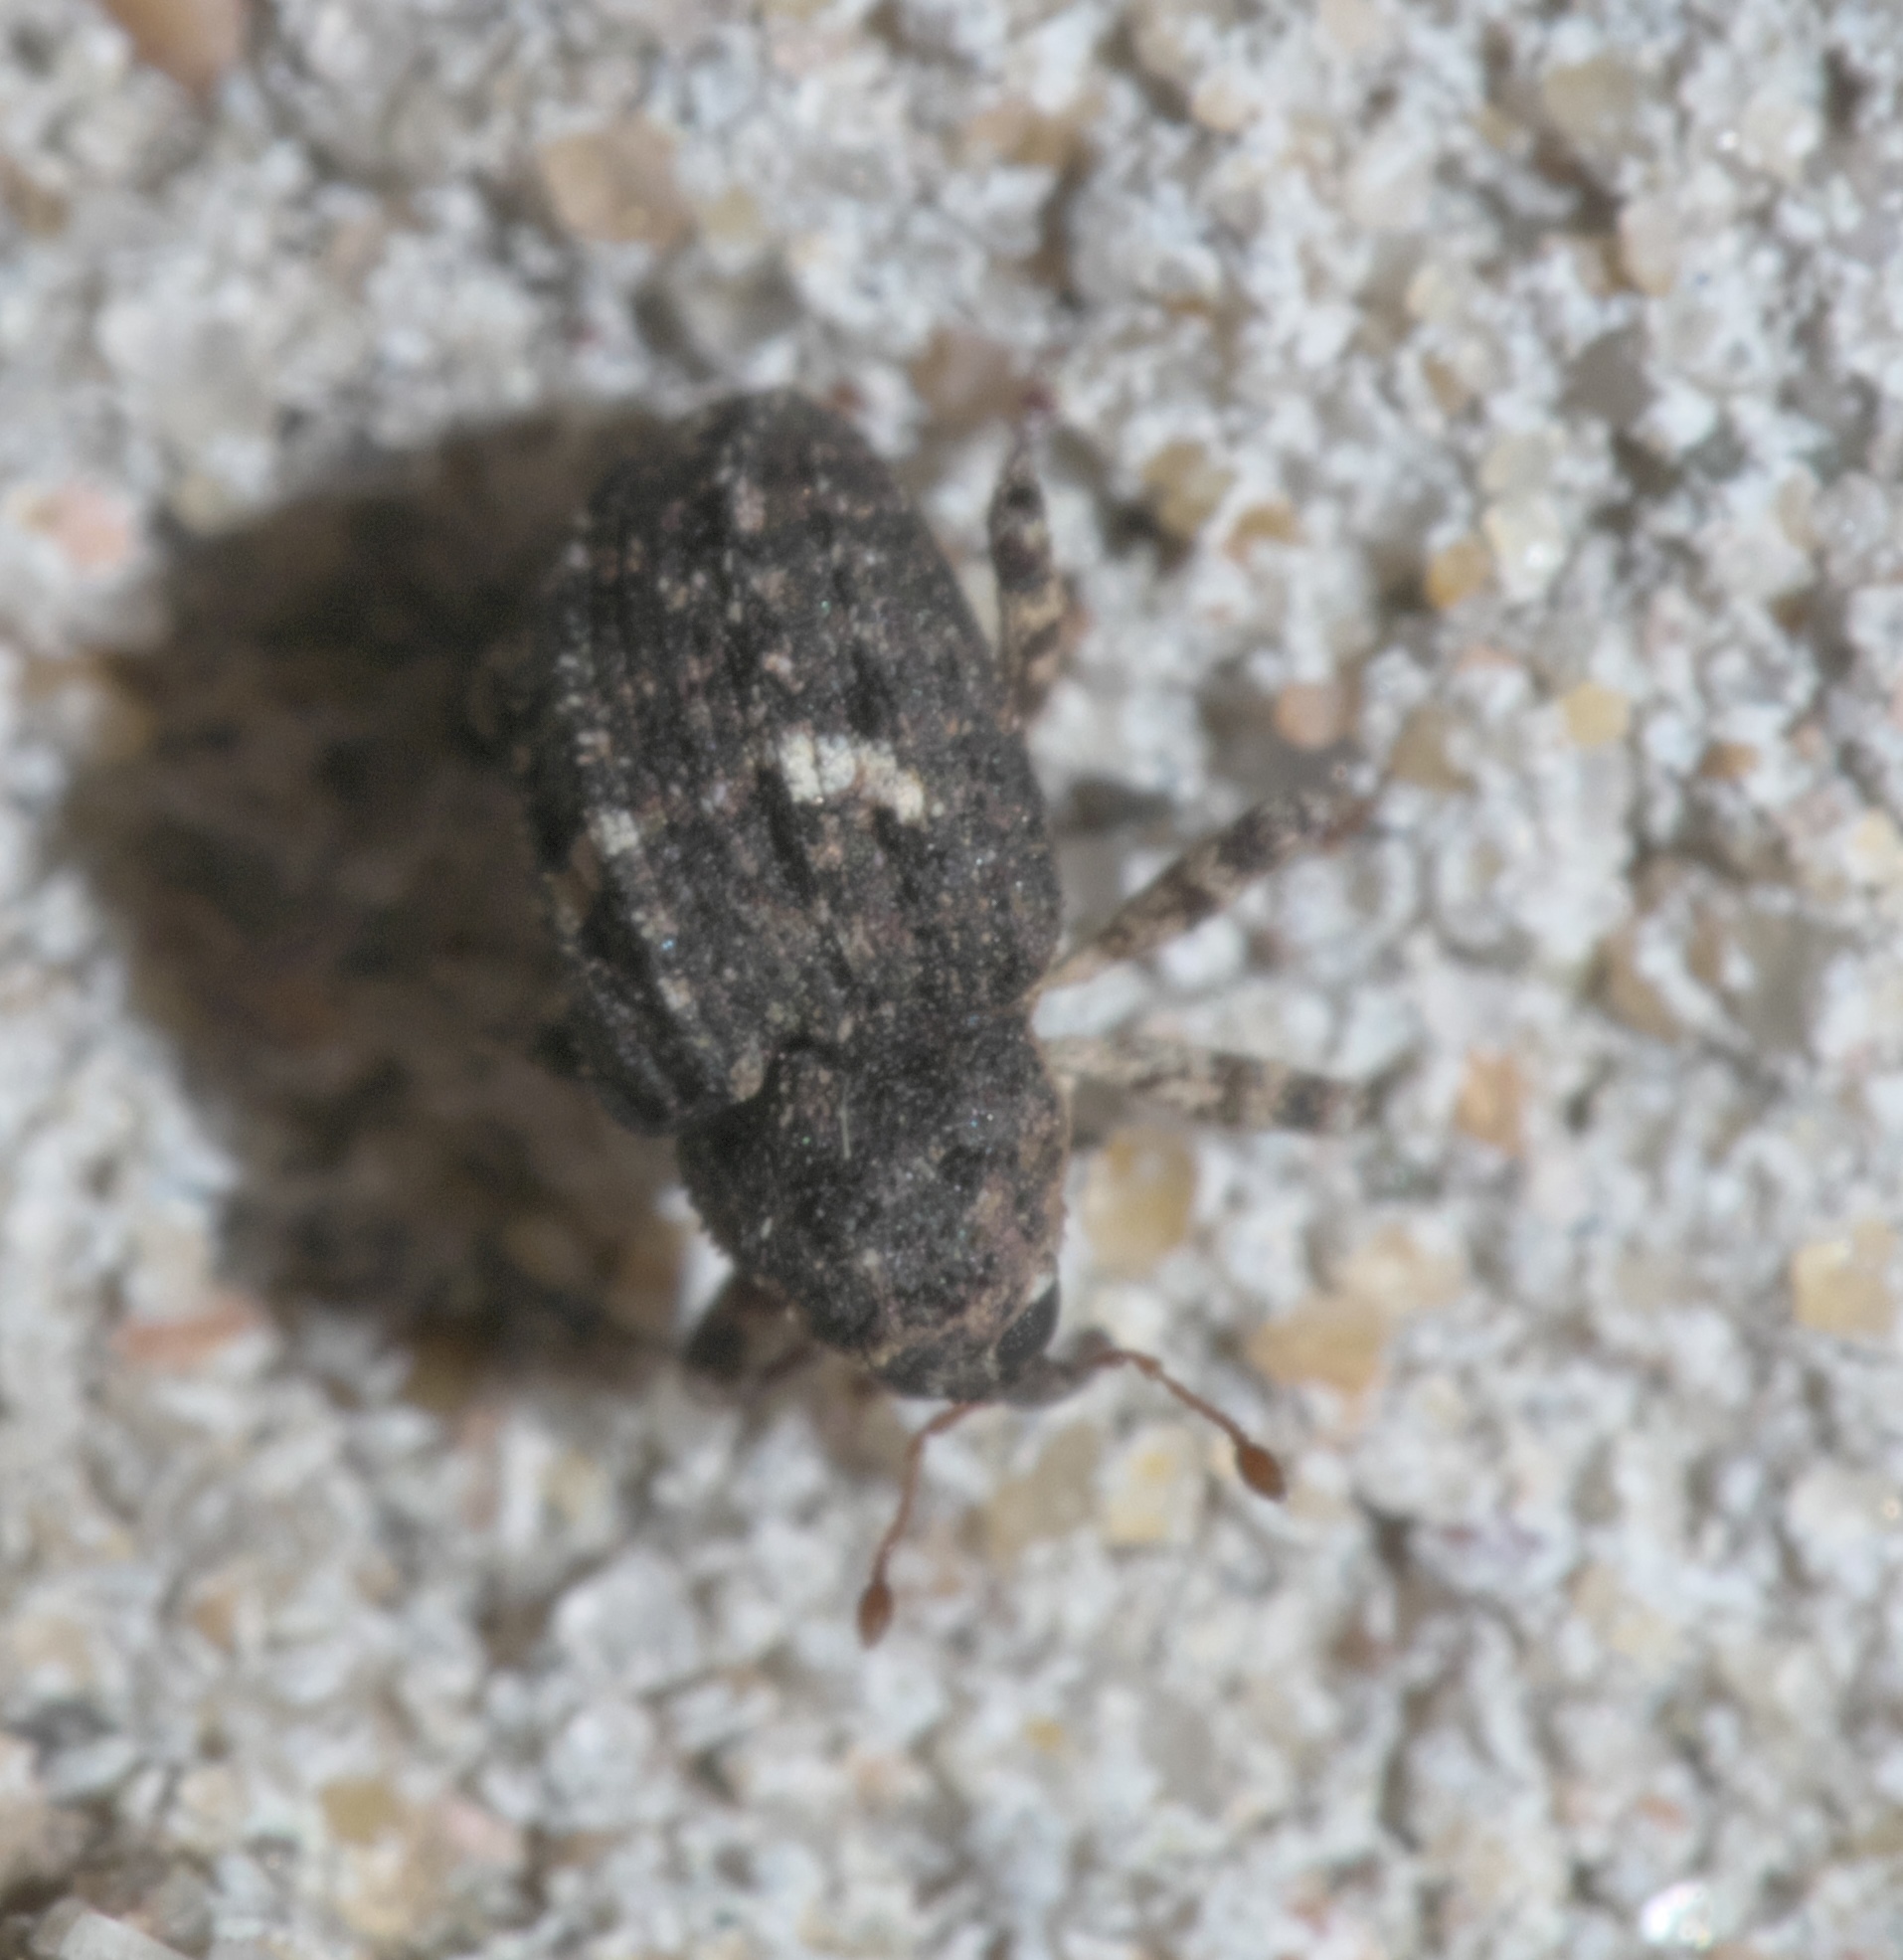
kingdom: Animalia
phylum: Arthropoda
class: Insecta
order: Coleoptera
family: Curculionidae
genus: Eubulus
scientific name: Eubulus bisignatus
